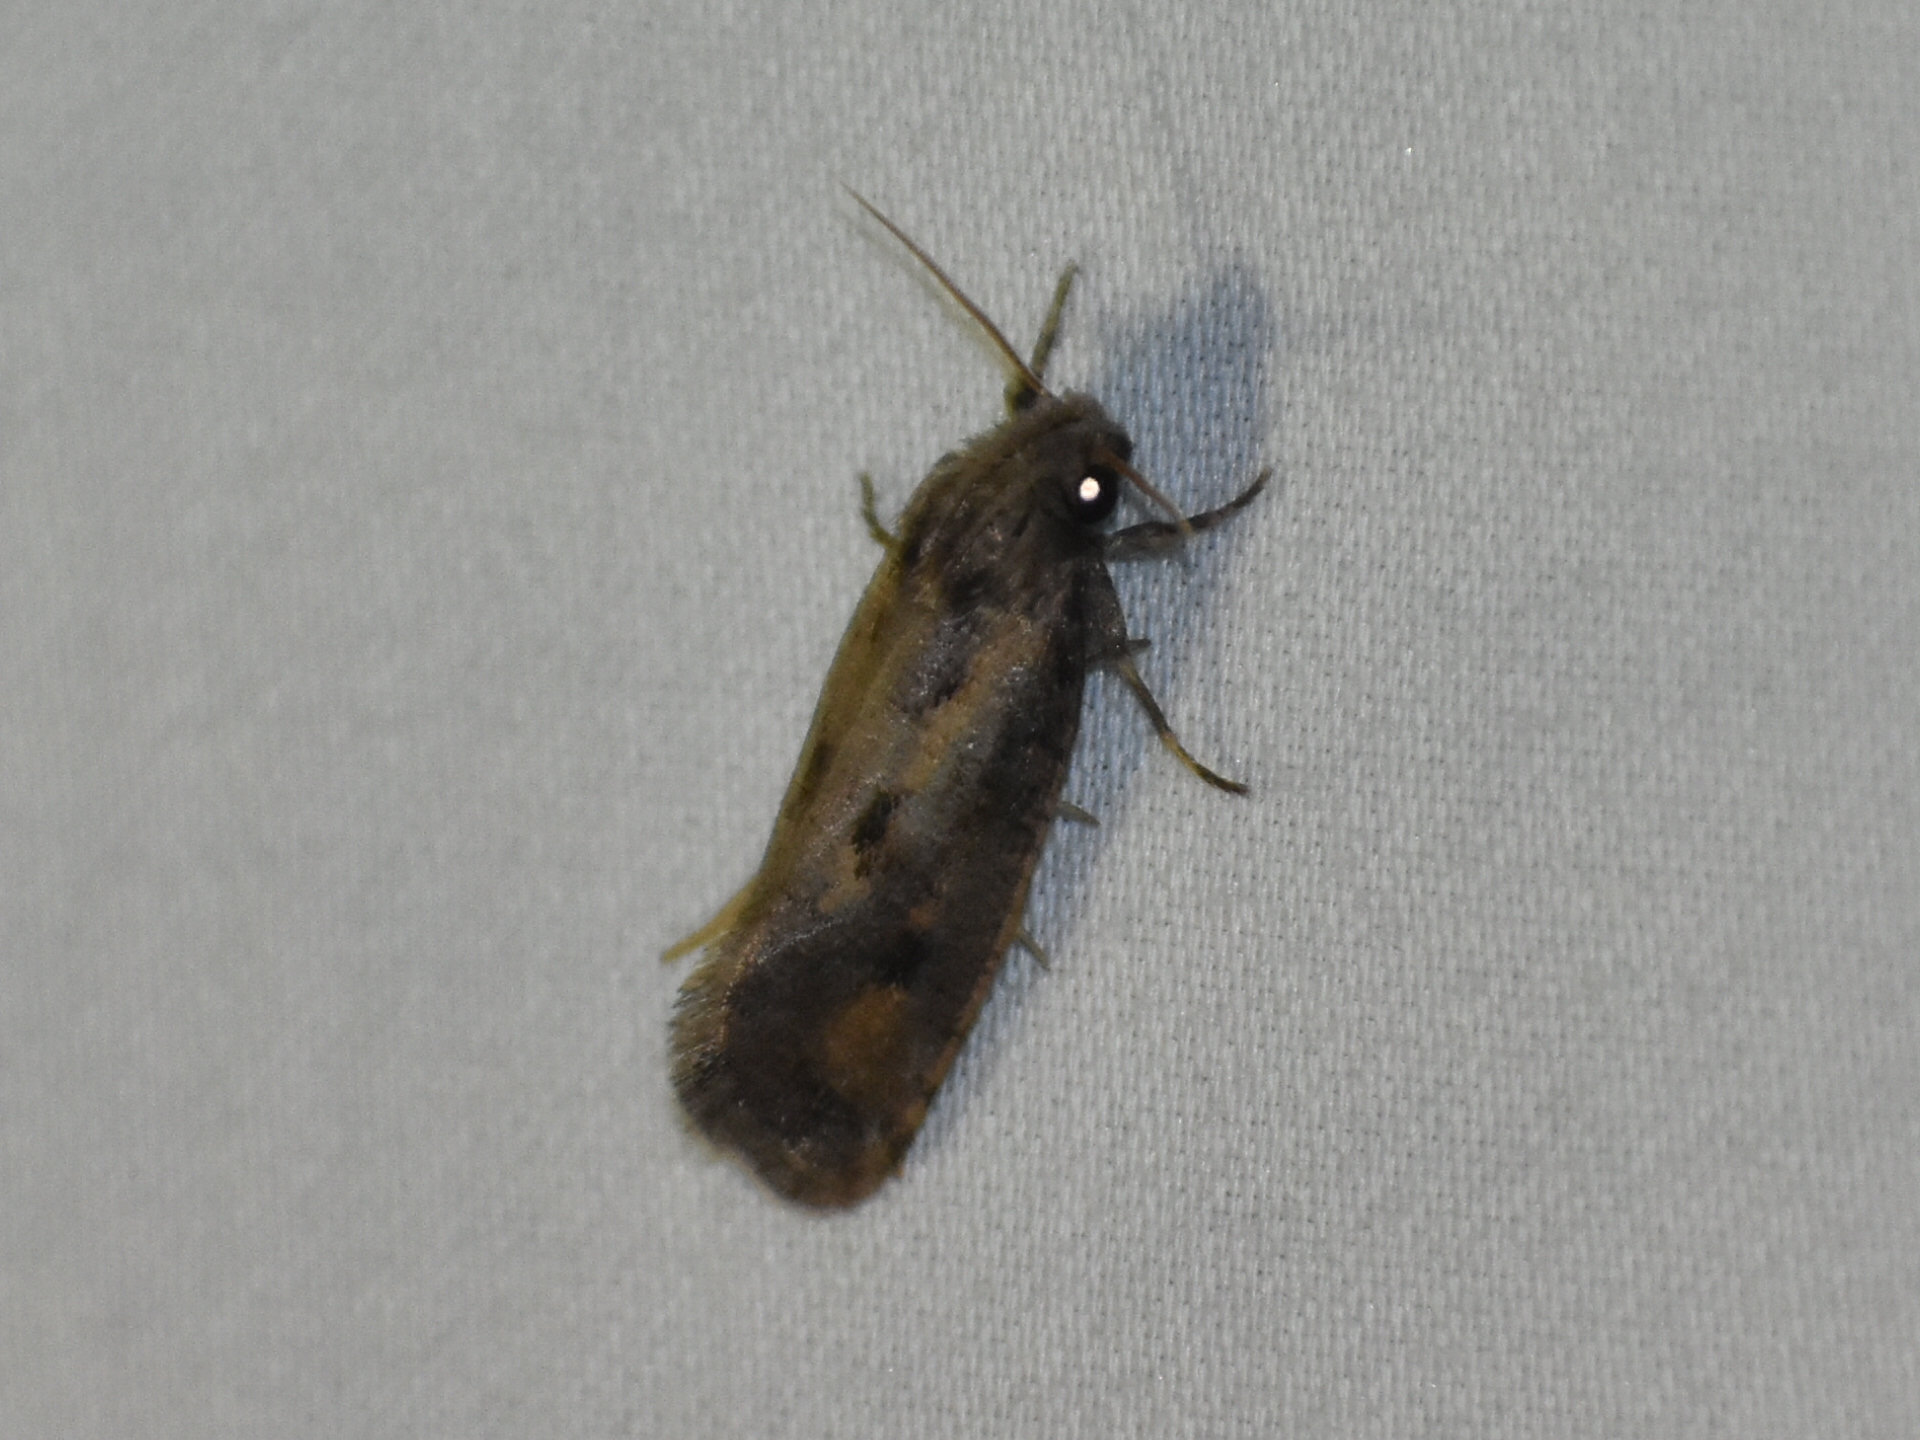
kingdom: Animalia
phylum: Arthropoda
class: Insecta
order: Lepidoptera
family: Tineidae
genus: Acrolophus
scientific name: Acrolophus popeanella
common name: Clemens' grass tubeworm moth
